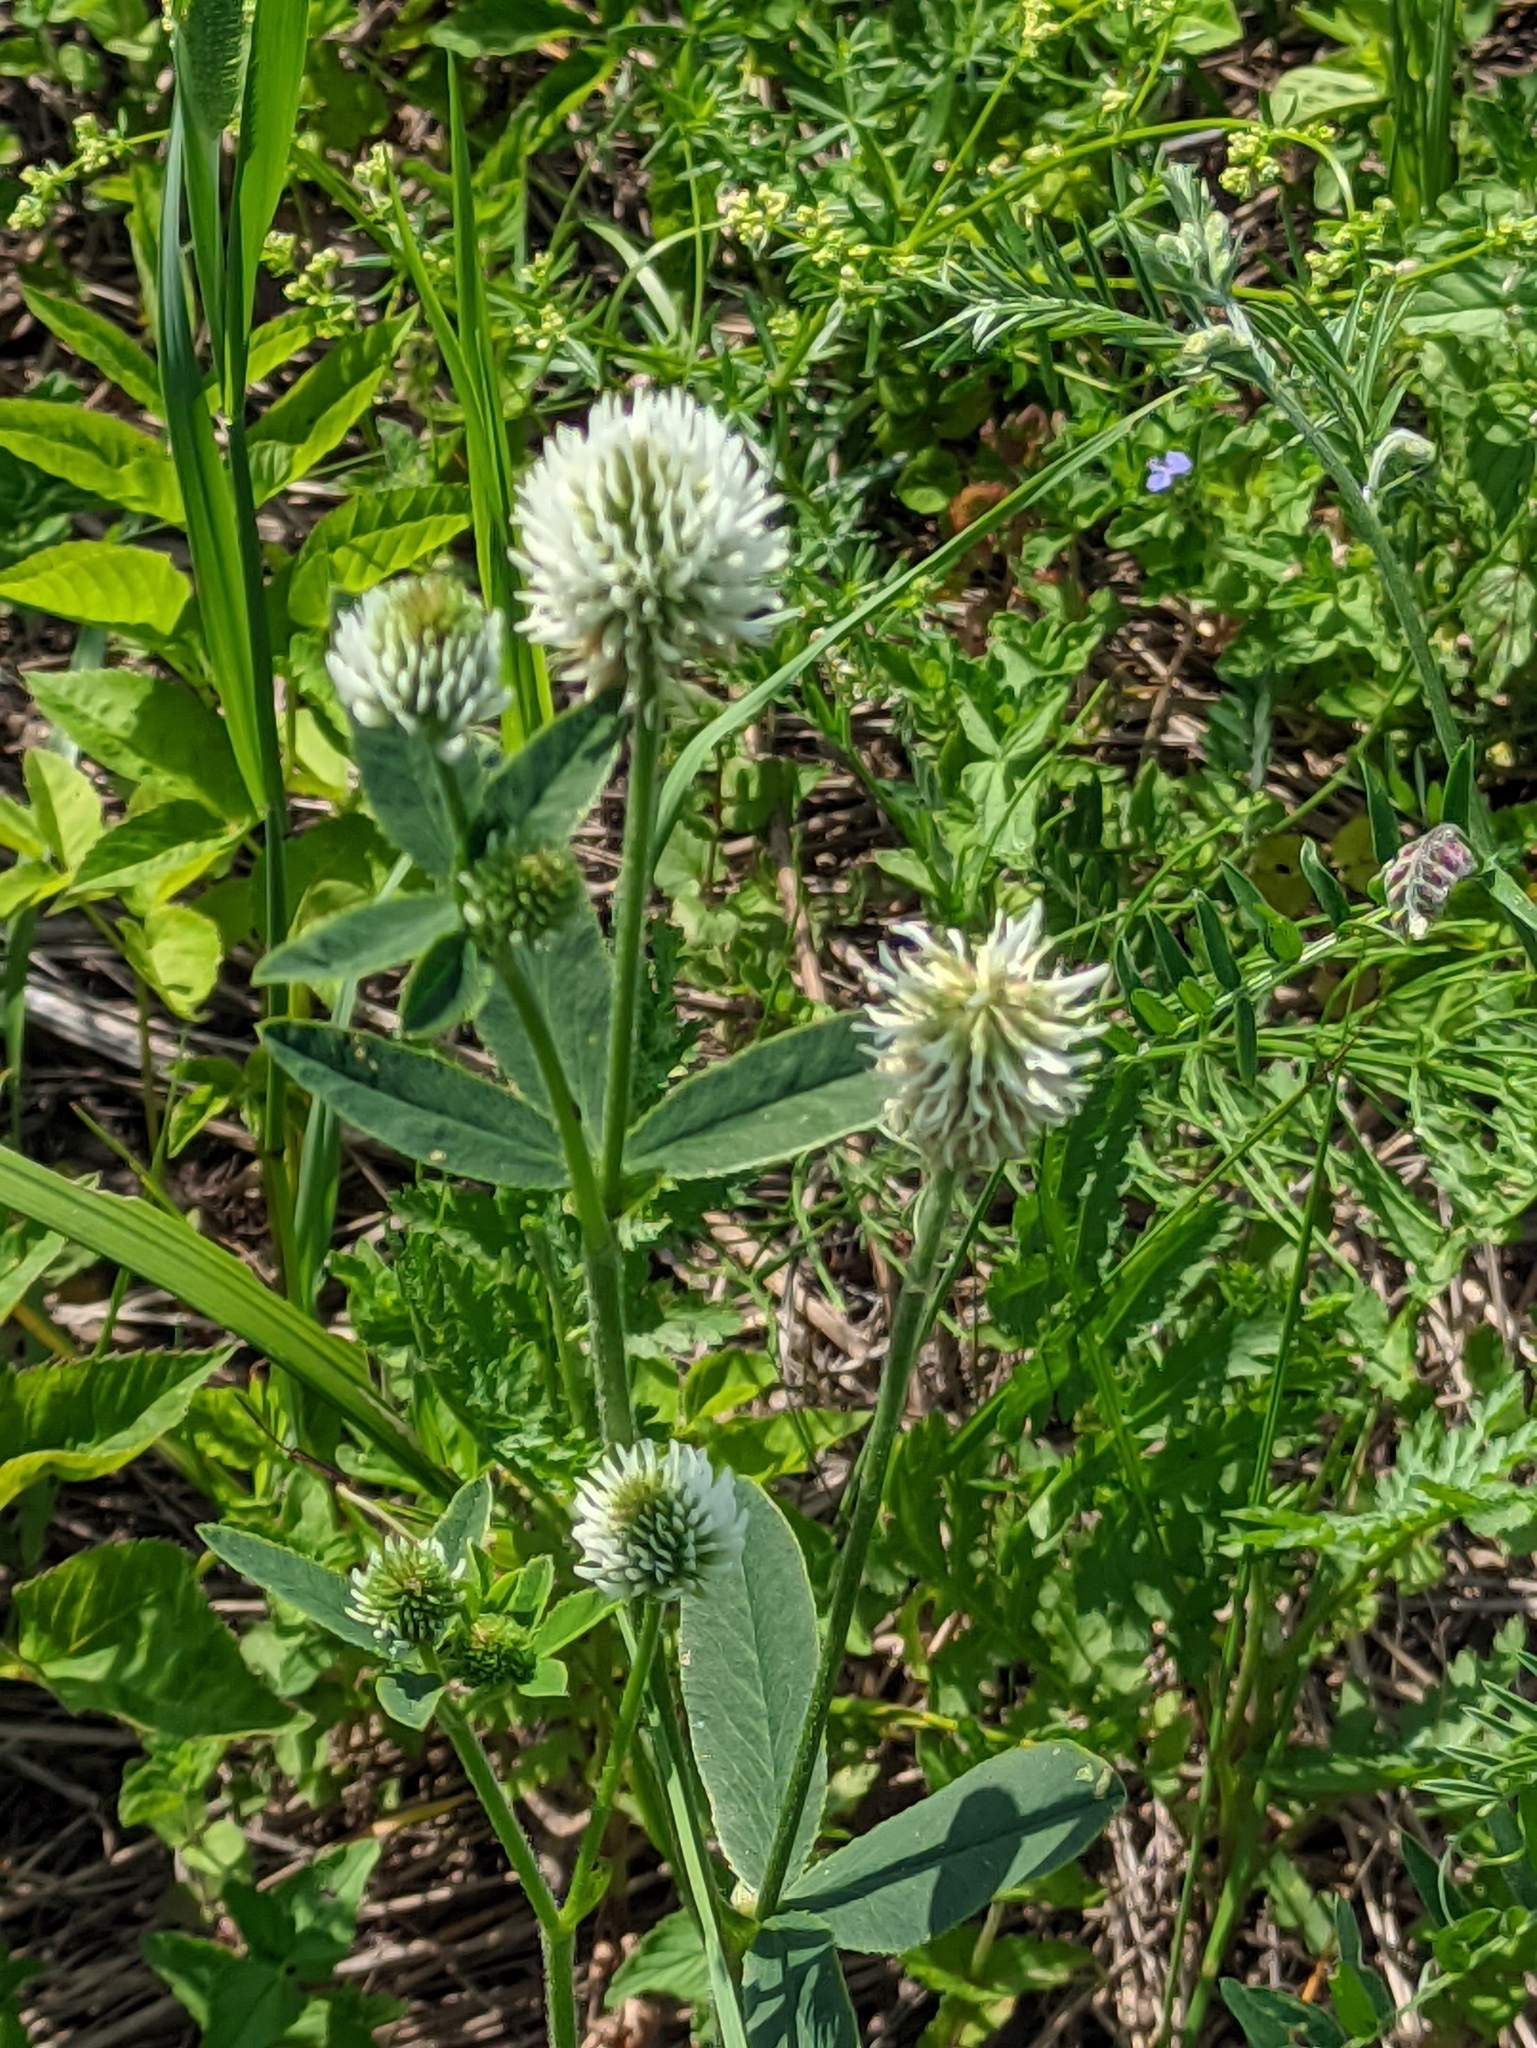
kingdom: Plantae
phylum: Tracheophyta
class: Magnoliopsida
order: Fabales
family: Fabaceae
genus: Trifolium
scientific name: Trifolium montanum
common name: Mountain clover
